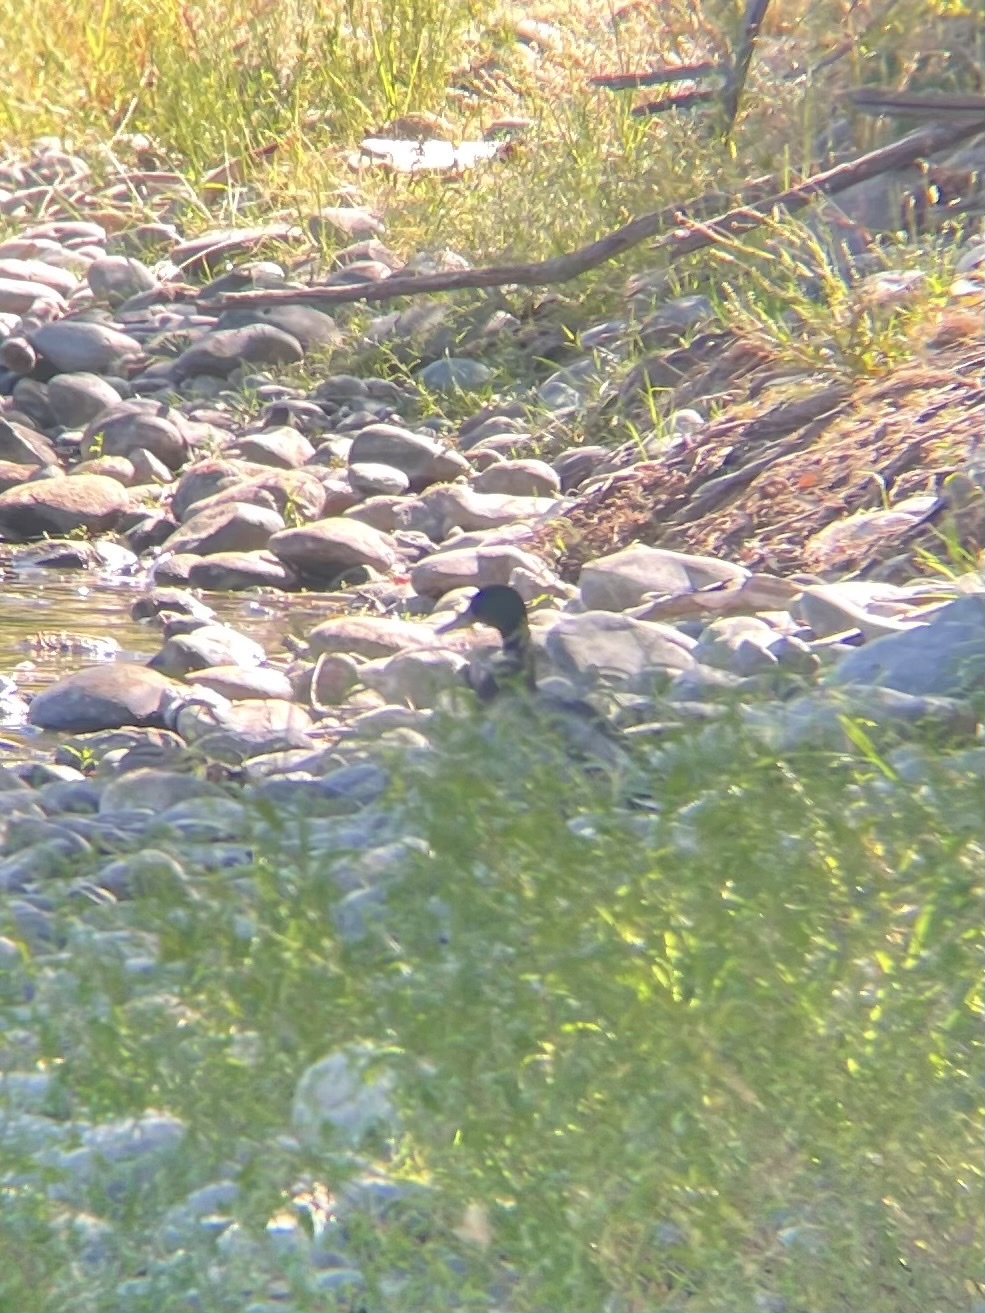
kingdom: Animalia
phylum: Chordata
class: Aves
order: Anseriformes
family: Anatidae
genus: Anas
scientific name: Anas platyrhynchos
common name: Mallard
